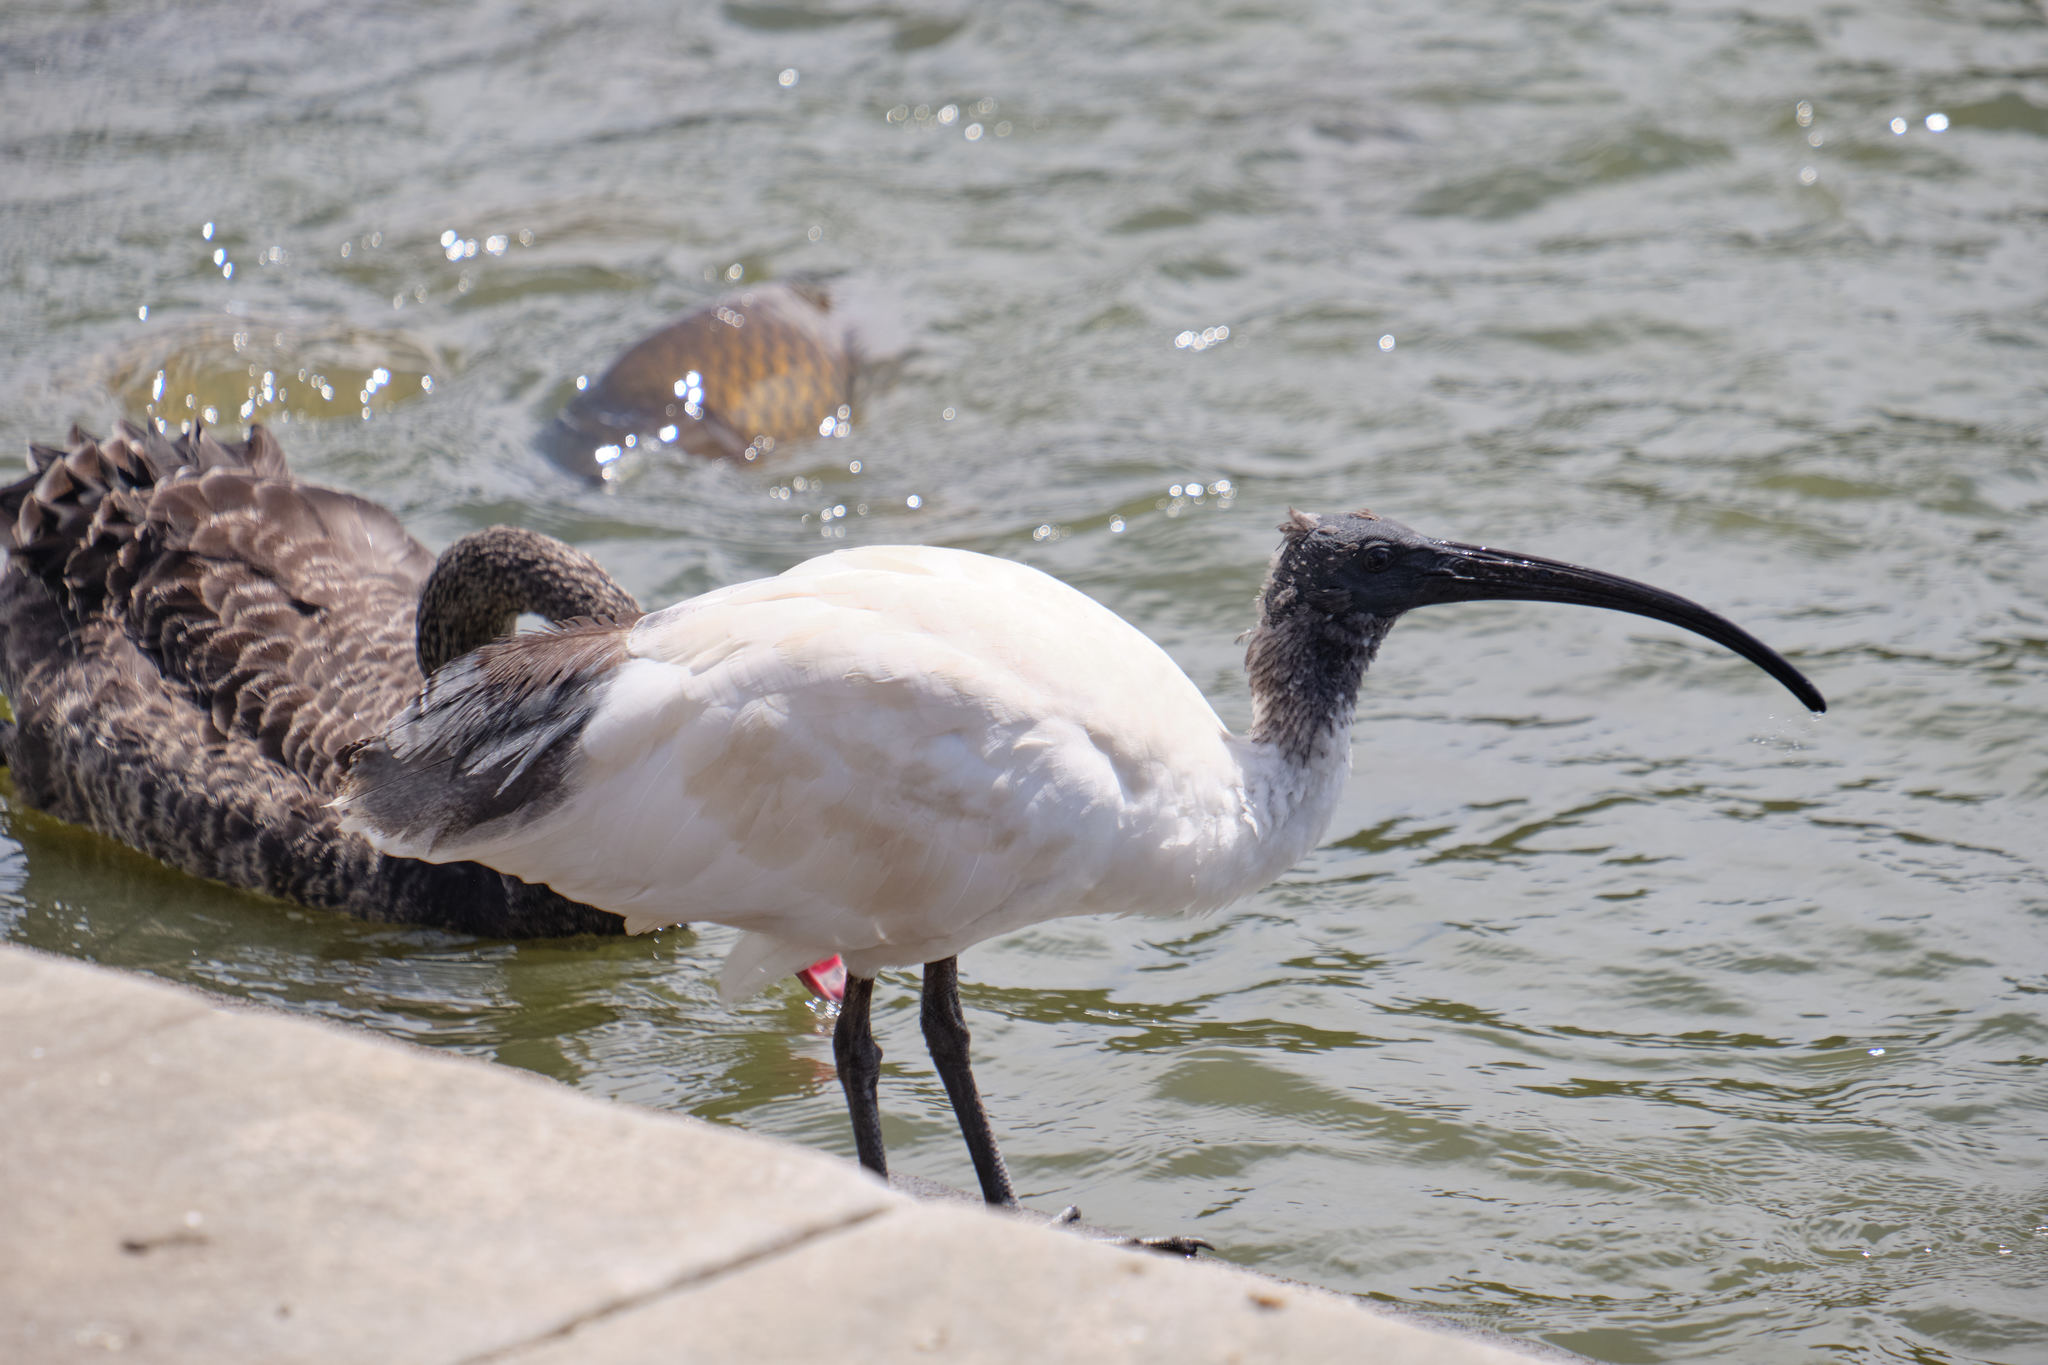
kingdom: Animalia
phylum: Chordata
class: Aves
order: Pelecaniformes
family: Threskiornithidae
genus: Threskiornis
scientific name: Threskiornis molucca
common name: Australian white ibis
